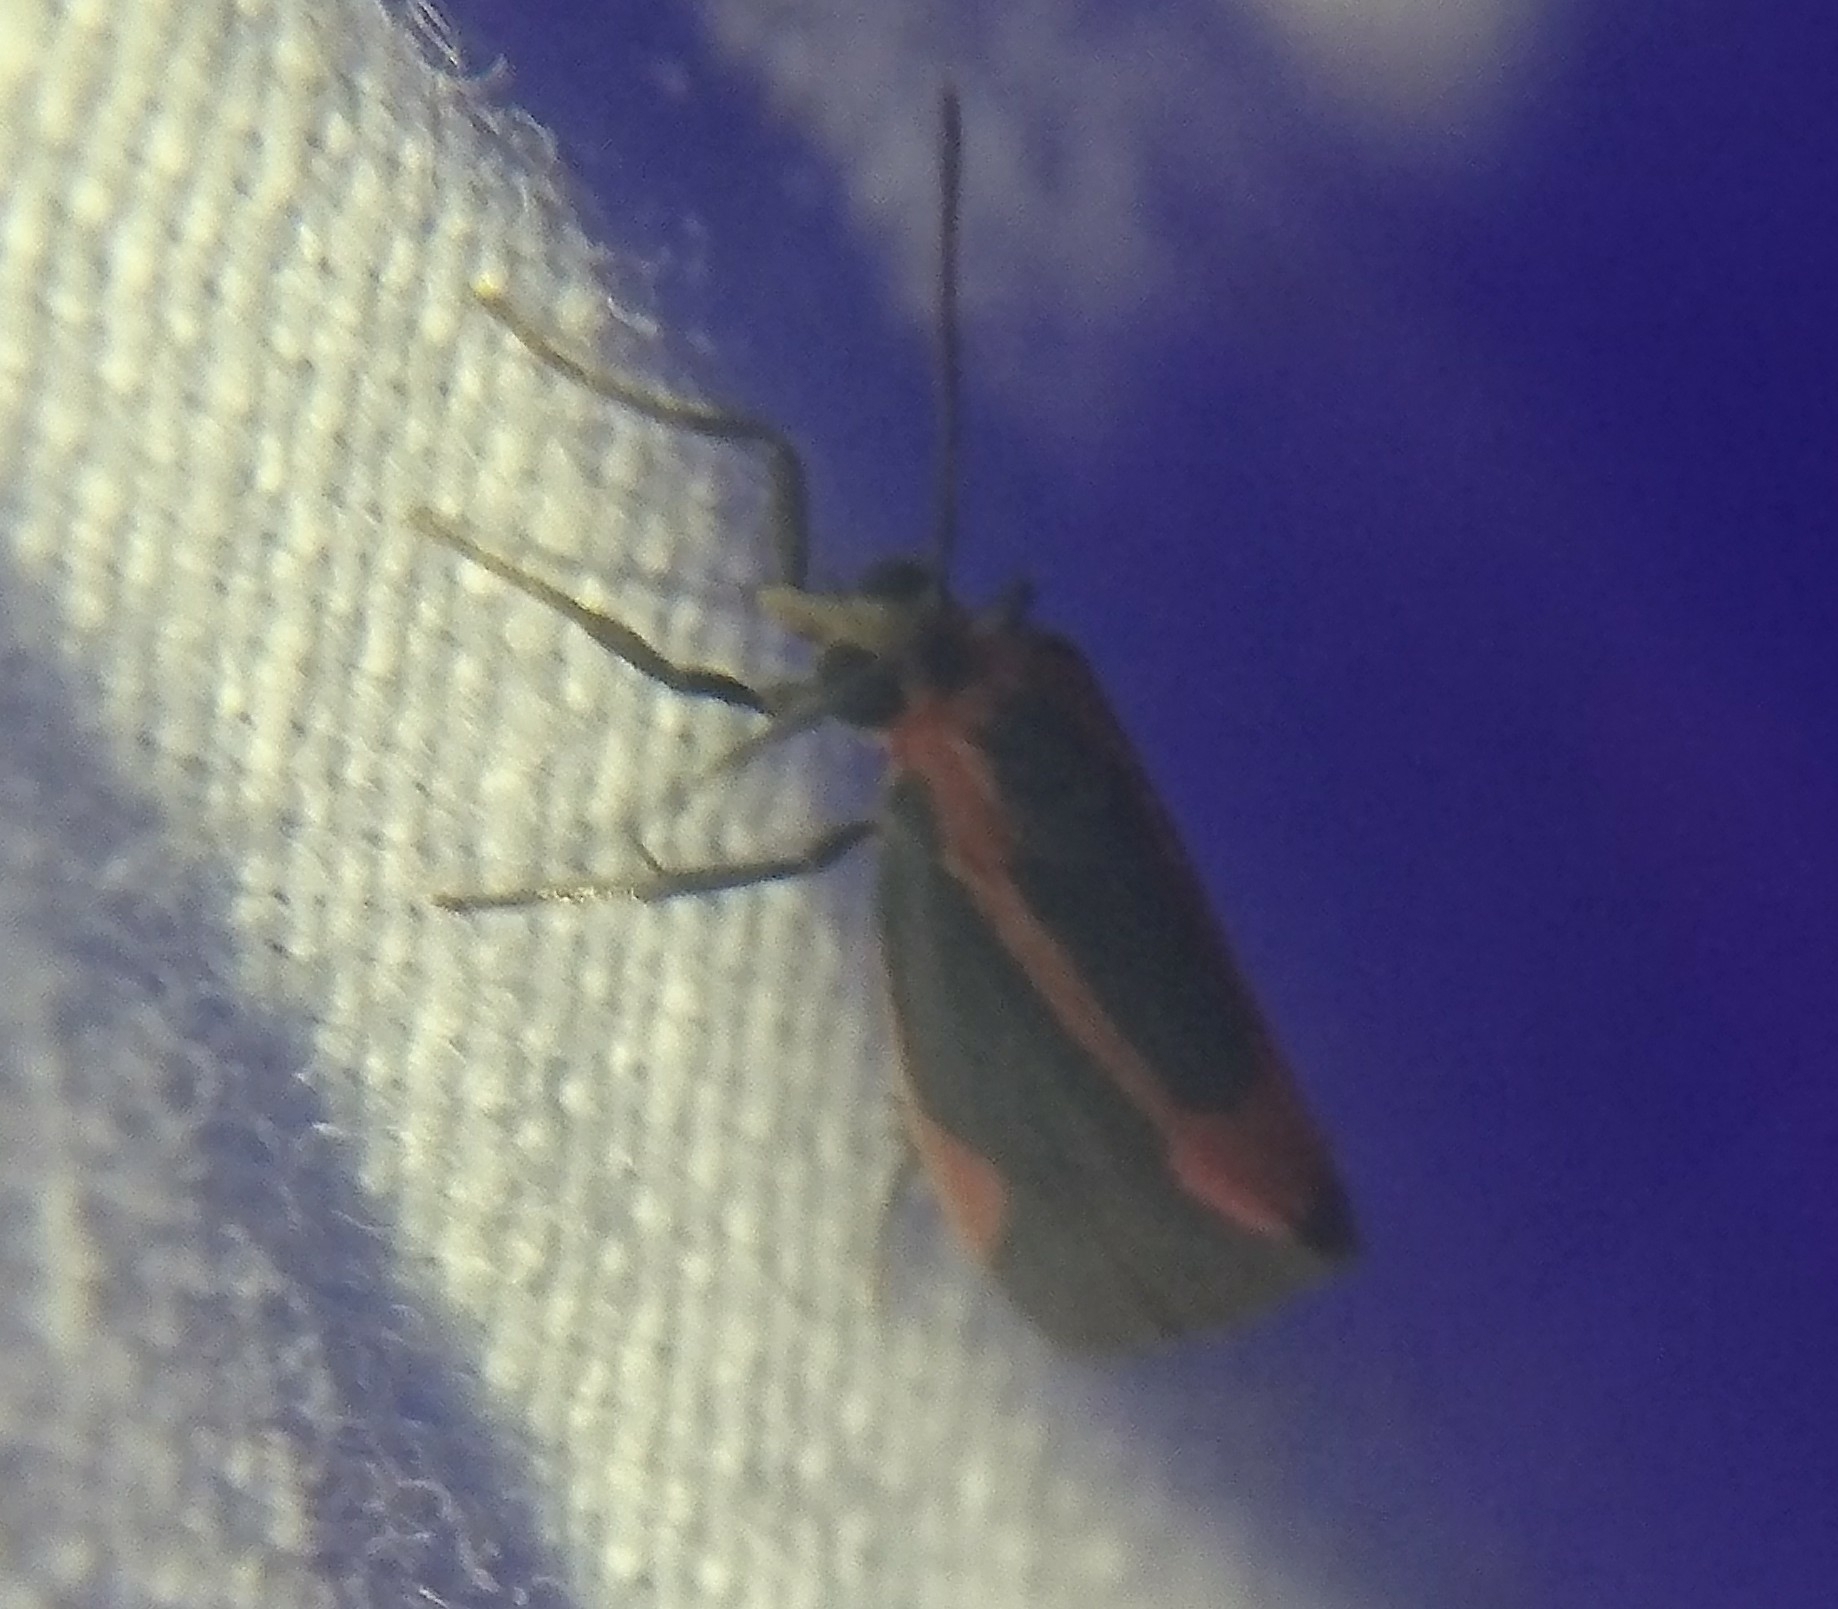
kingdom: Animalia
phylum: Arthropoda
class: Insecta
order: Lepidoptera
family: Erebidae
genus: Cisthene
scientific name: Cisthene subjecta
